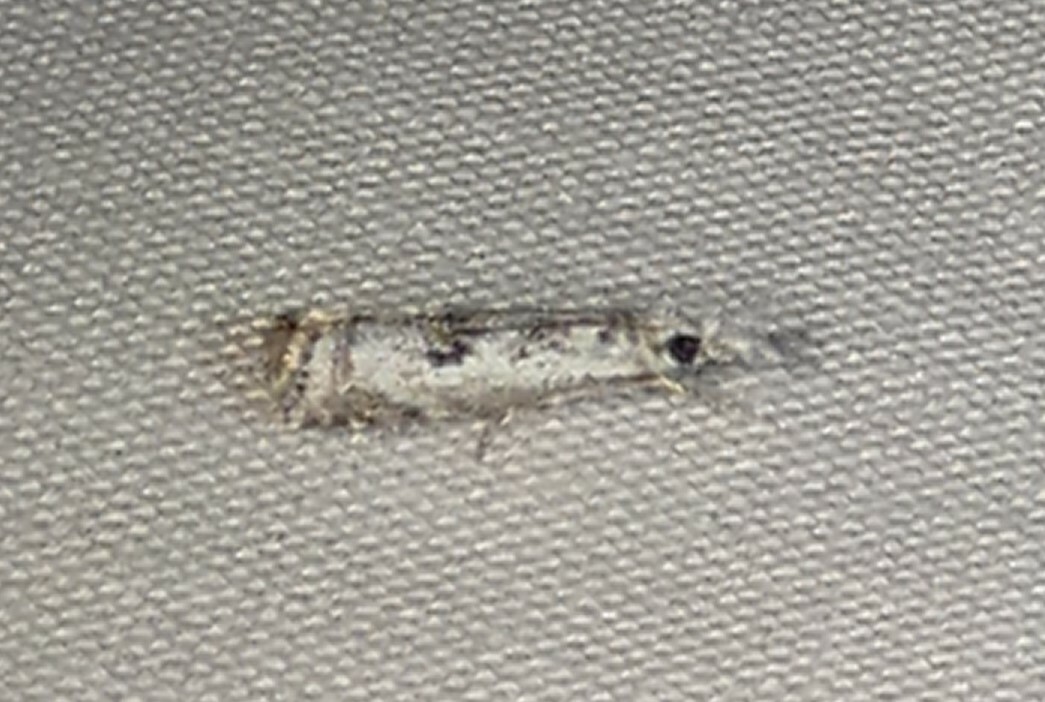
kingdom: Animalia
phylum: Arthropoda
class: Insecta
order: Lepidoptera
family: Crambidae
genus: Microcrambus
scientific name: Microcrambus immunellus
